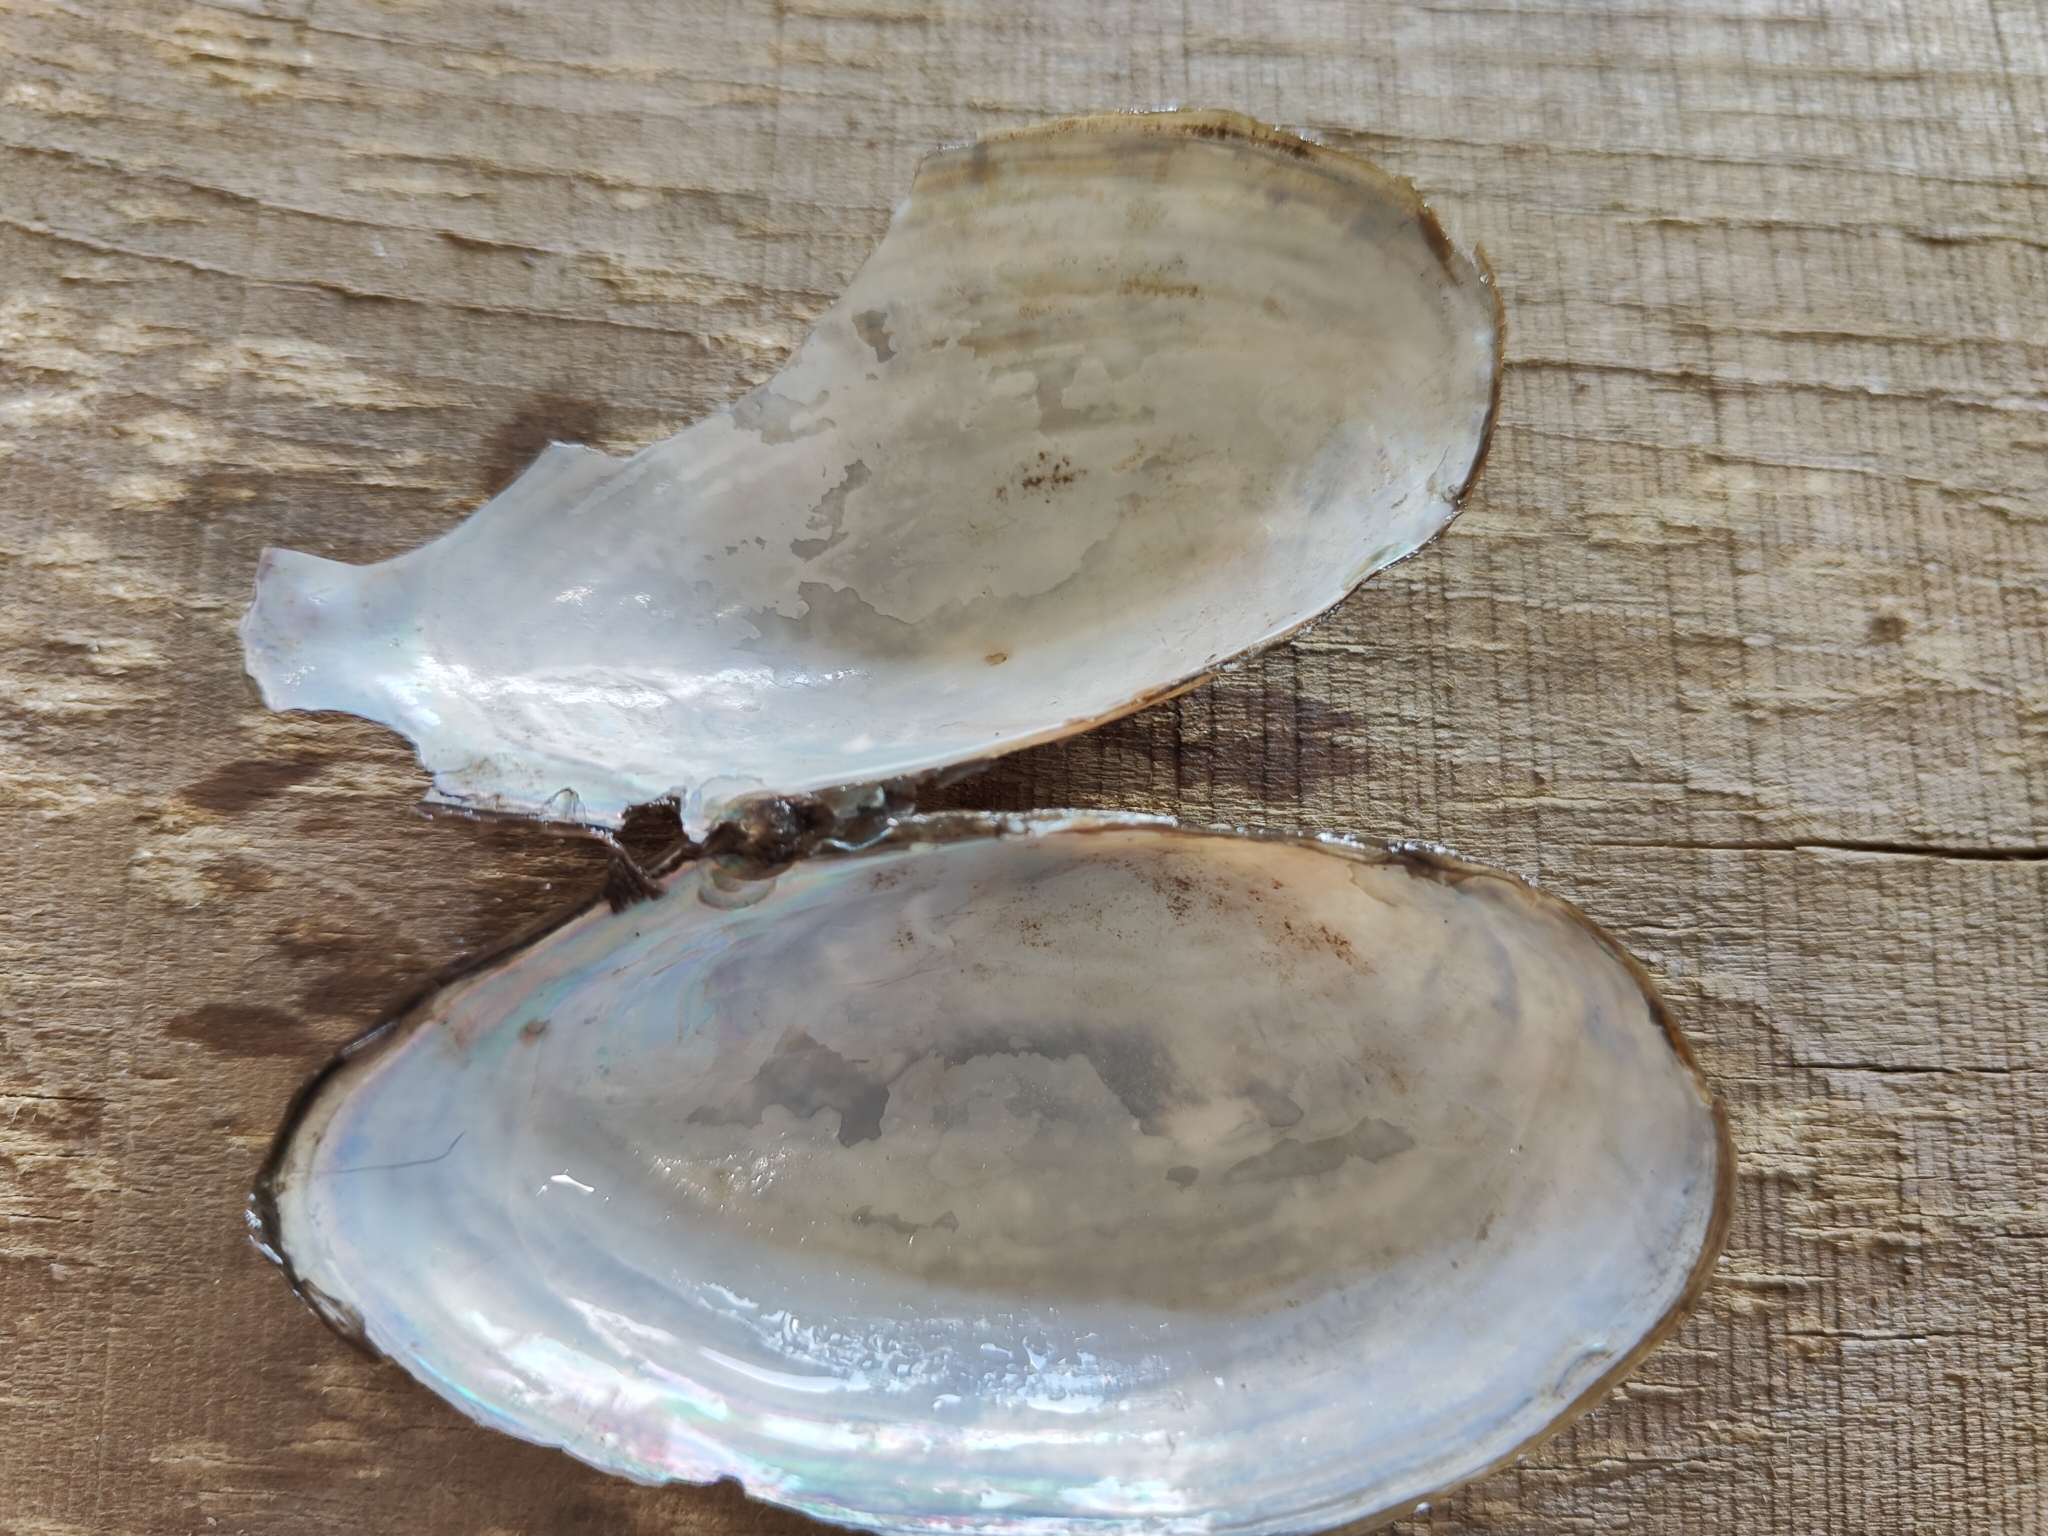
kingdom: Animalia
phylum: Mollusca
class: Bivalvia
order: Unionida
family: Unionidae
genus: Utterbackia
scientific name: Utterbackia imbecillis
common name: Paper pondshell
